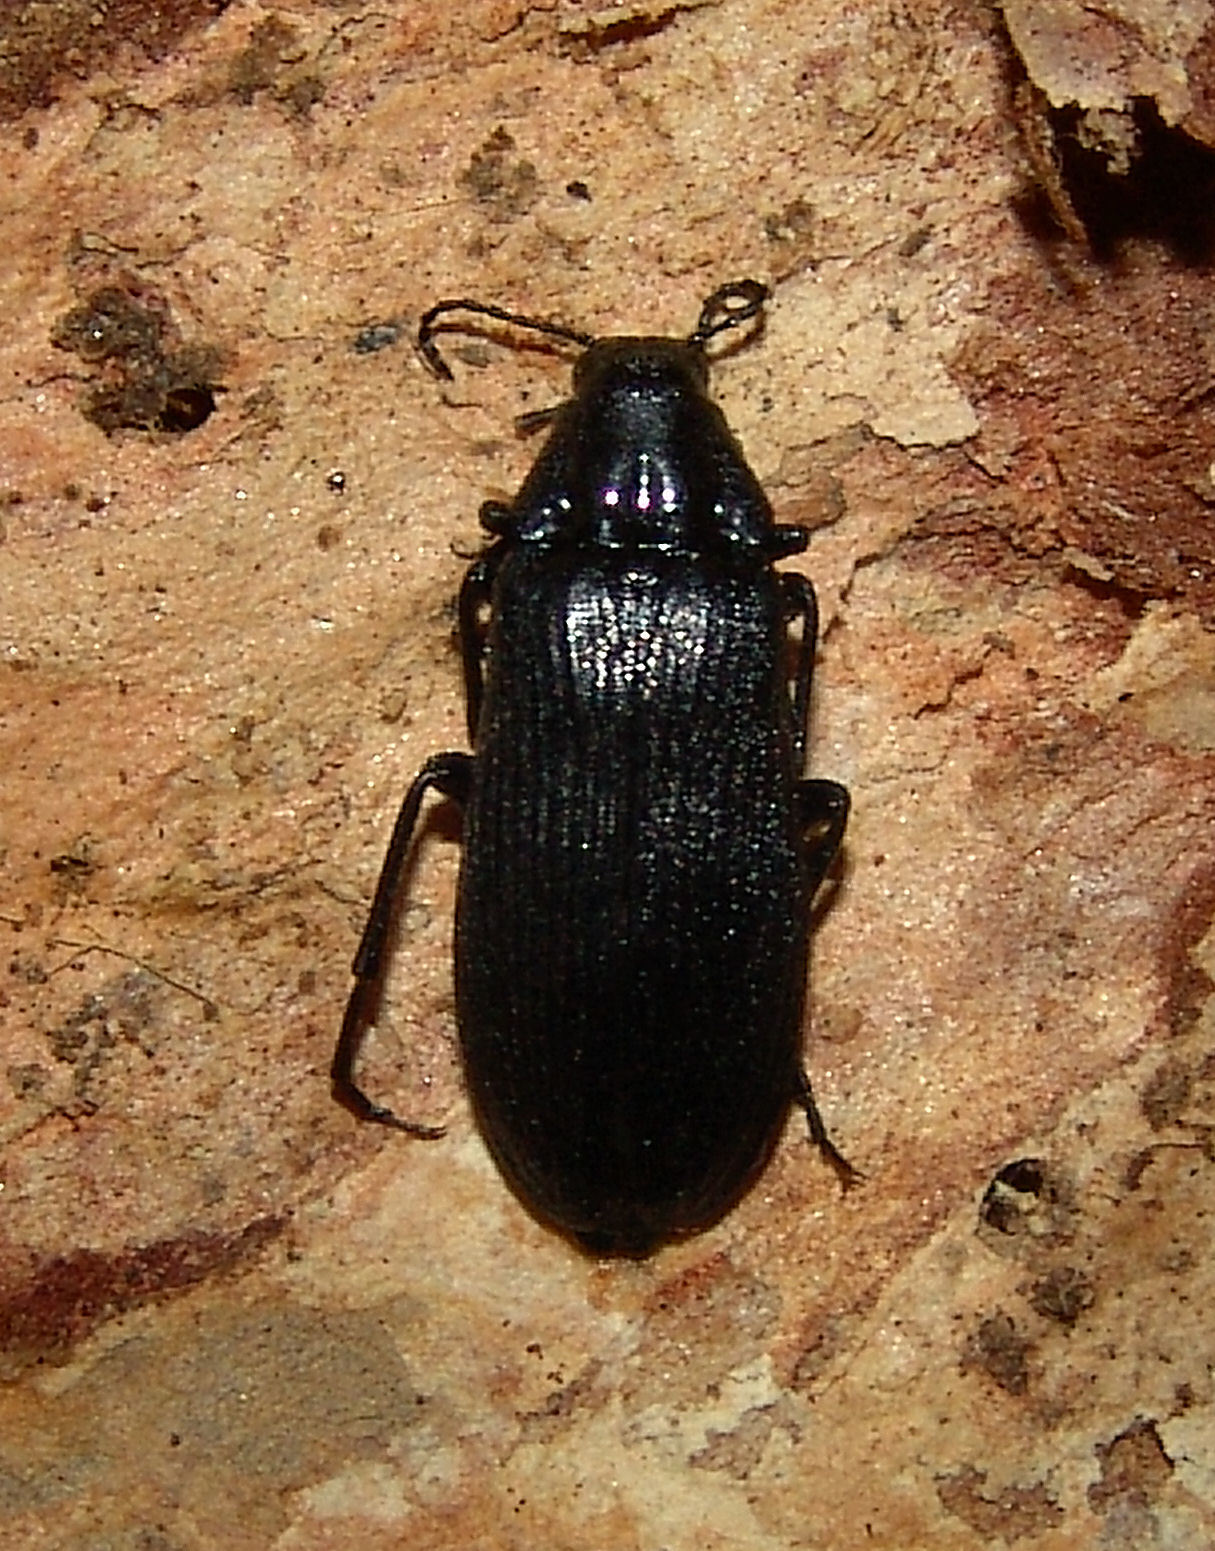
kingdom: Animalia
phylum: Arthropoda
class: Insecta
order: Coleoptera
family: Melandryidae
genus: Melandrya
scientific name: Melandrya striata
